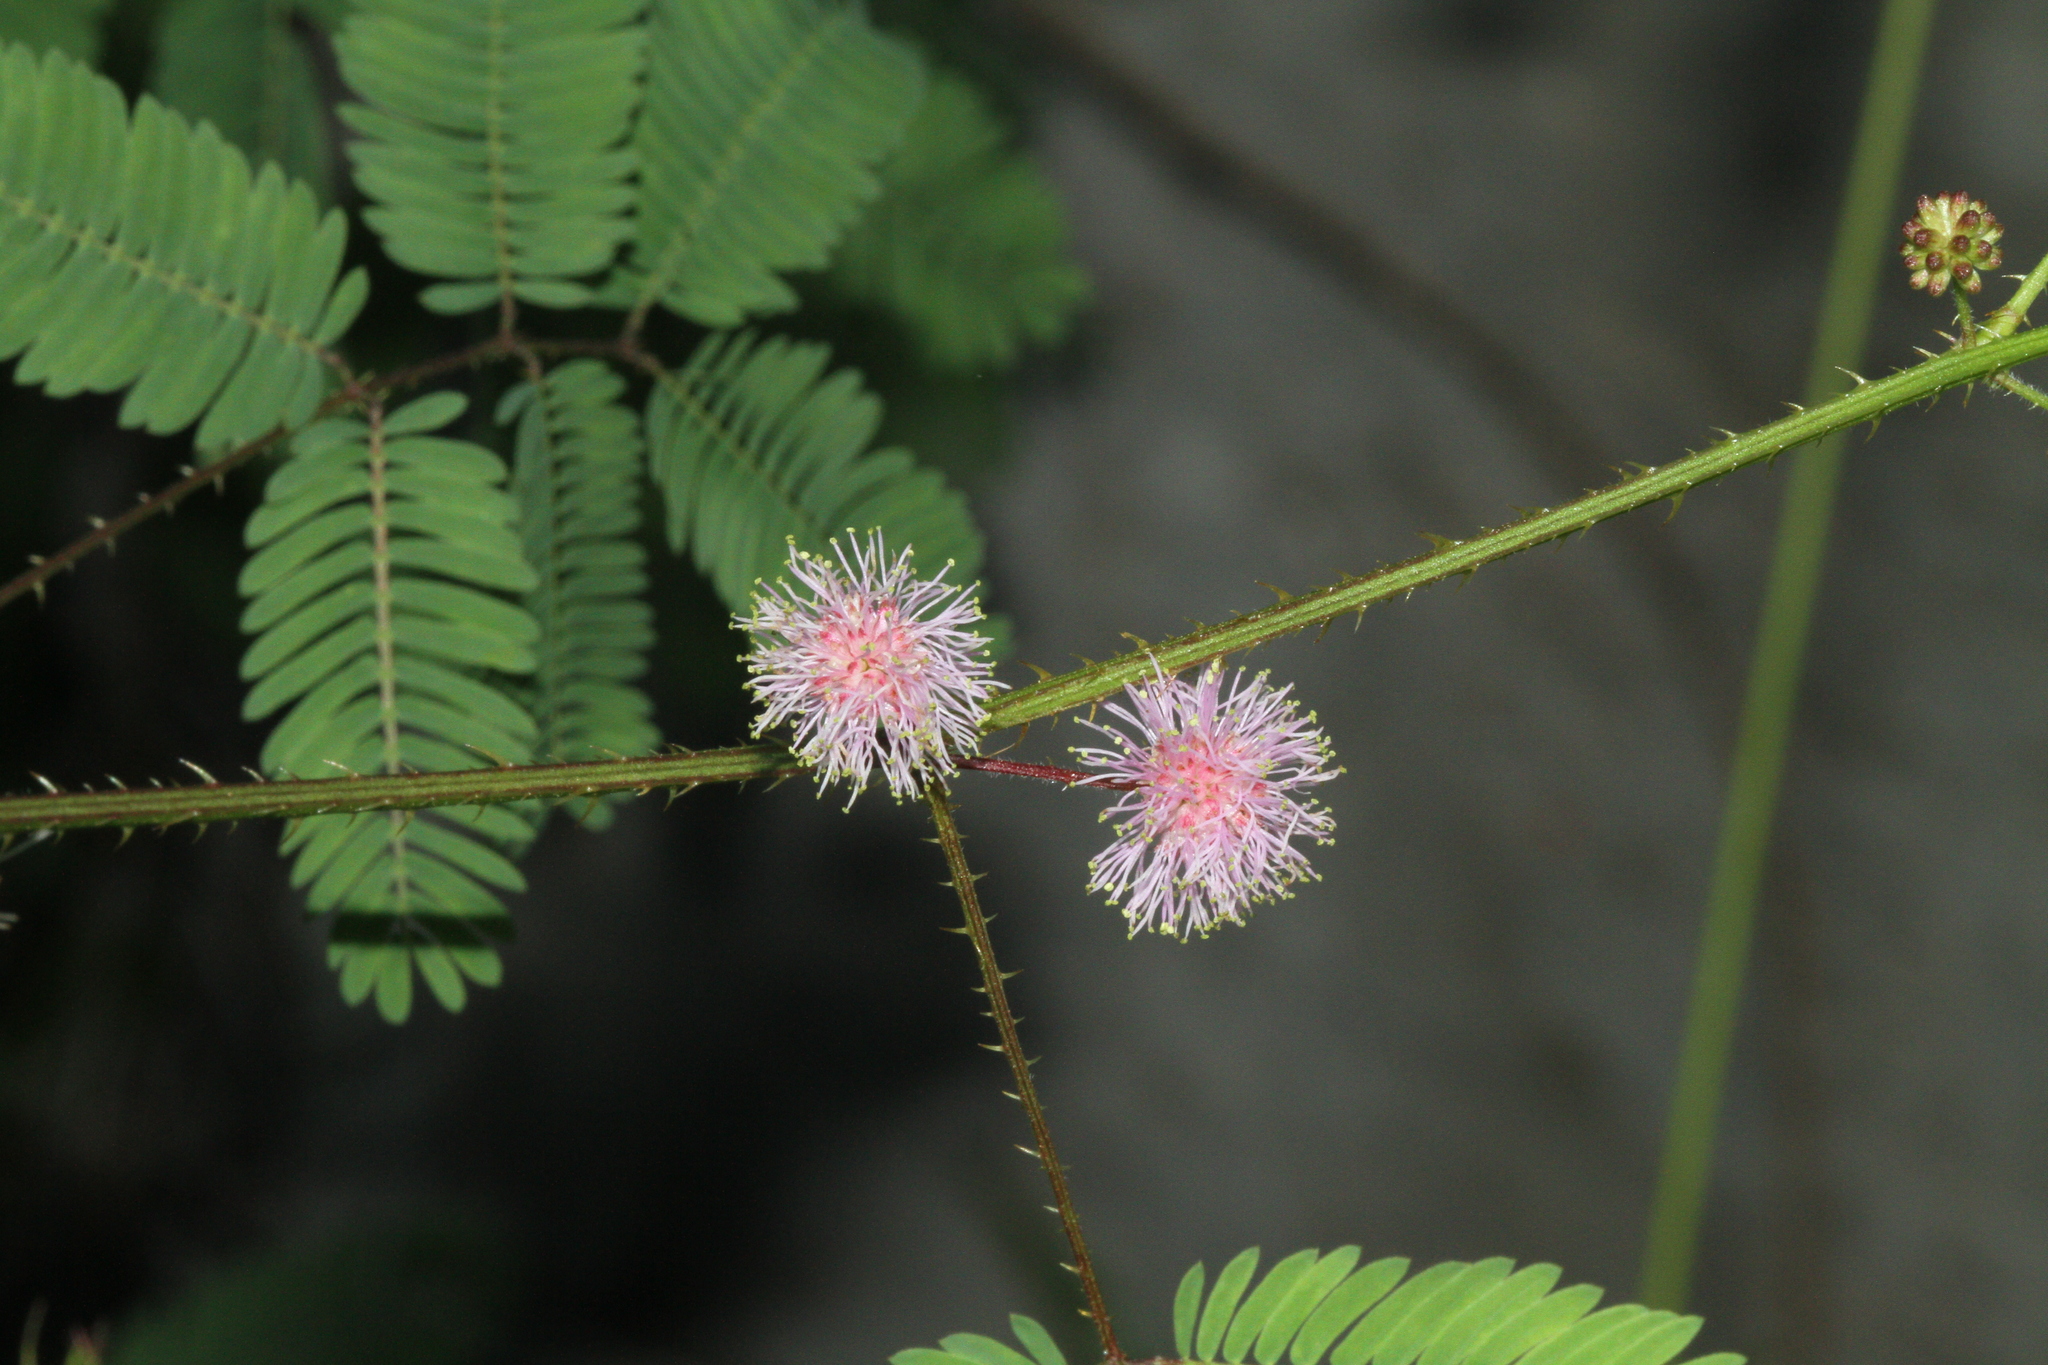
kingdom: Plantae
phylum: Tracheophyta
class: Magnoliopsida
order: Fabales
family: Fabaceae
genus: Mimosa
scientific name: Mimosa candollei
